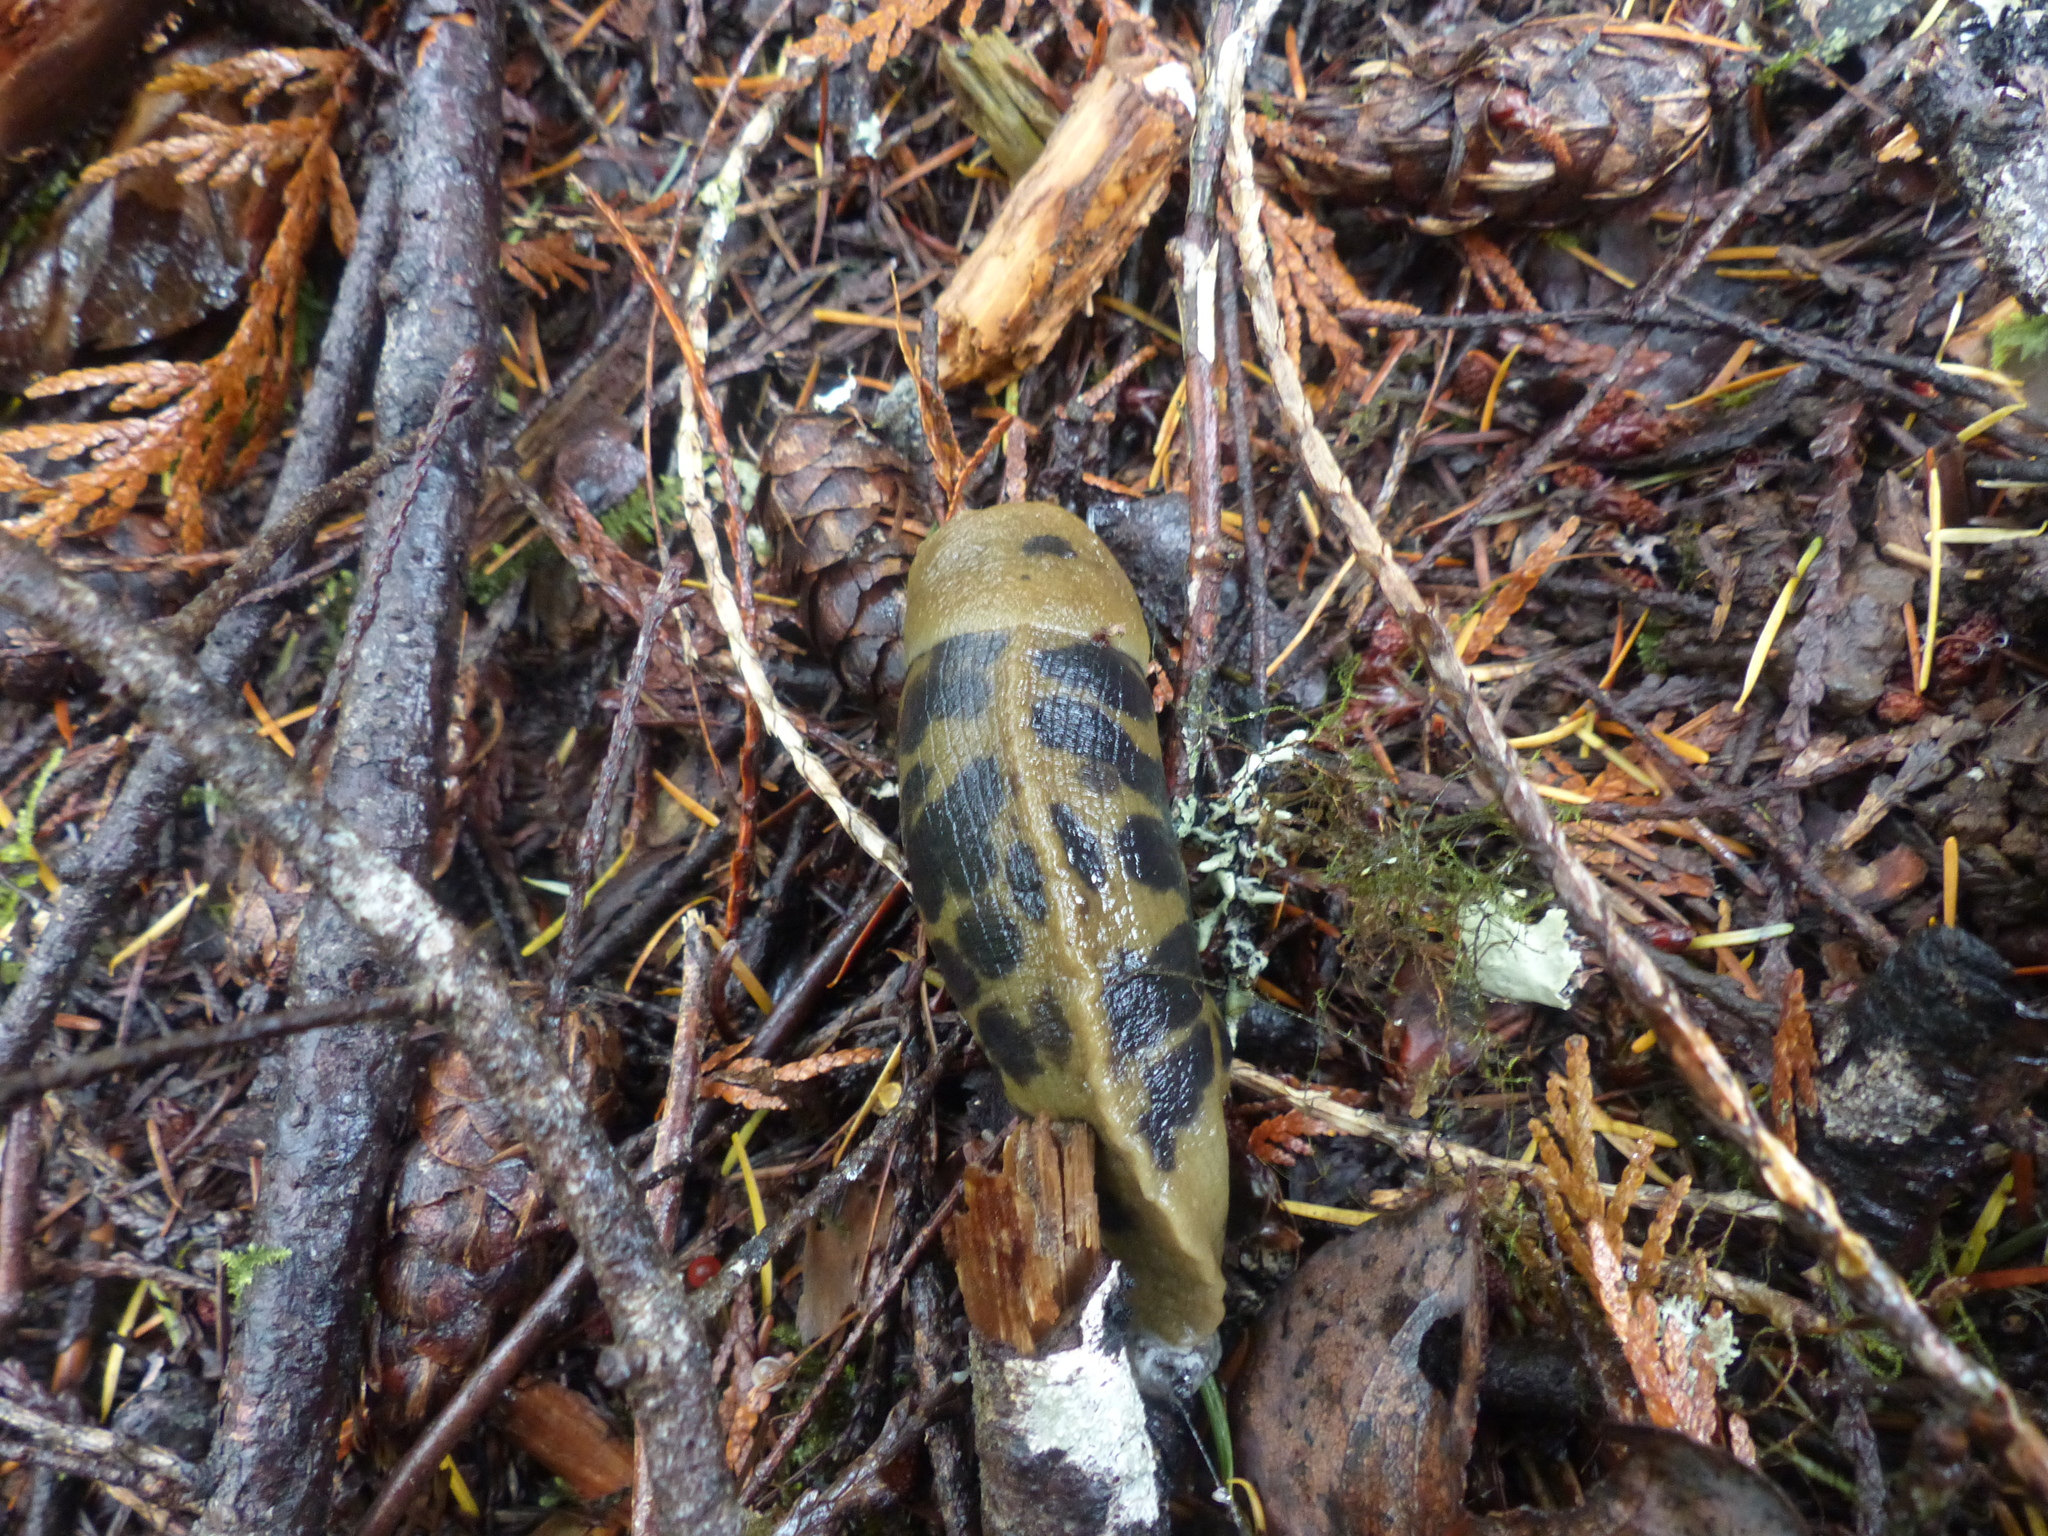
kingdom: Animalia
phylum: Mollusca
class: Gastropoda
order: Stylommatophora
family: Ariolimacidae
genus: Ariolimax
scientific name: Ariolimax columbianus
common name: Pacific banana slug
